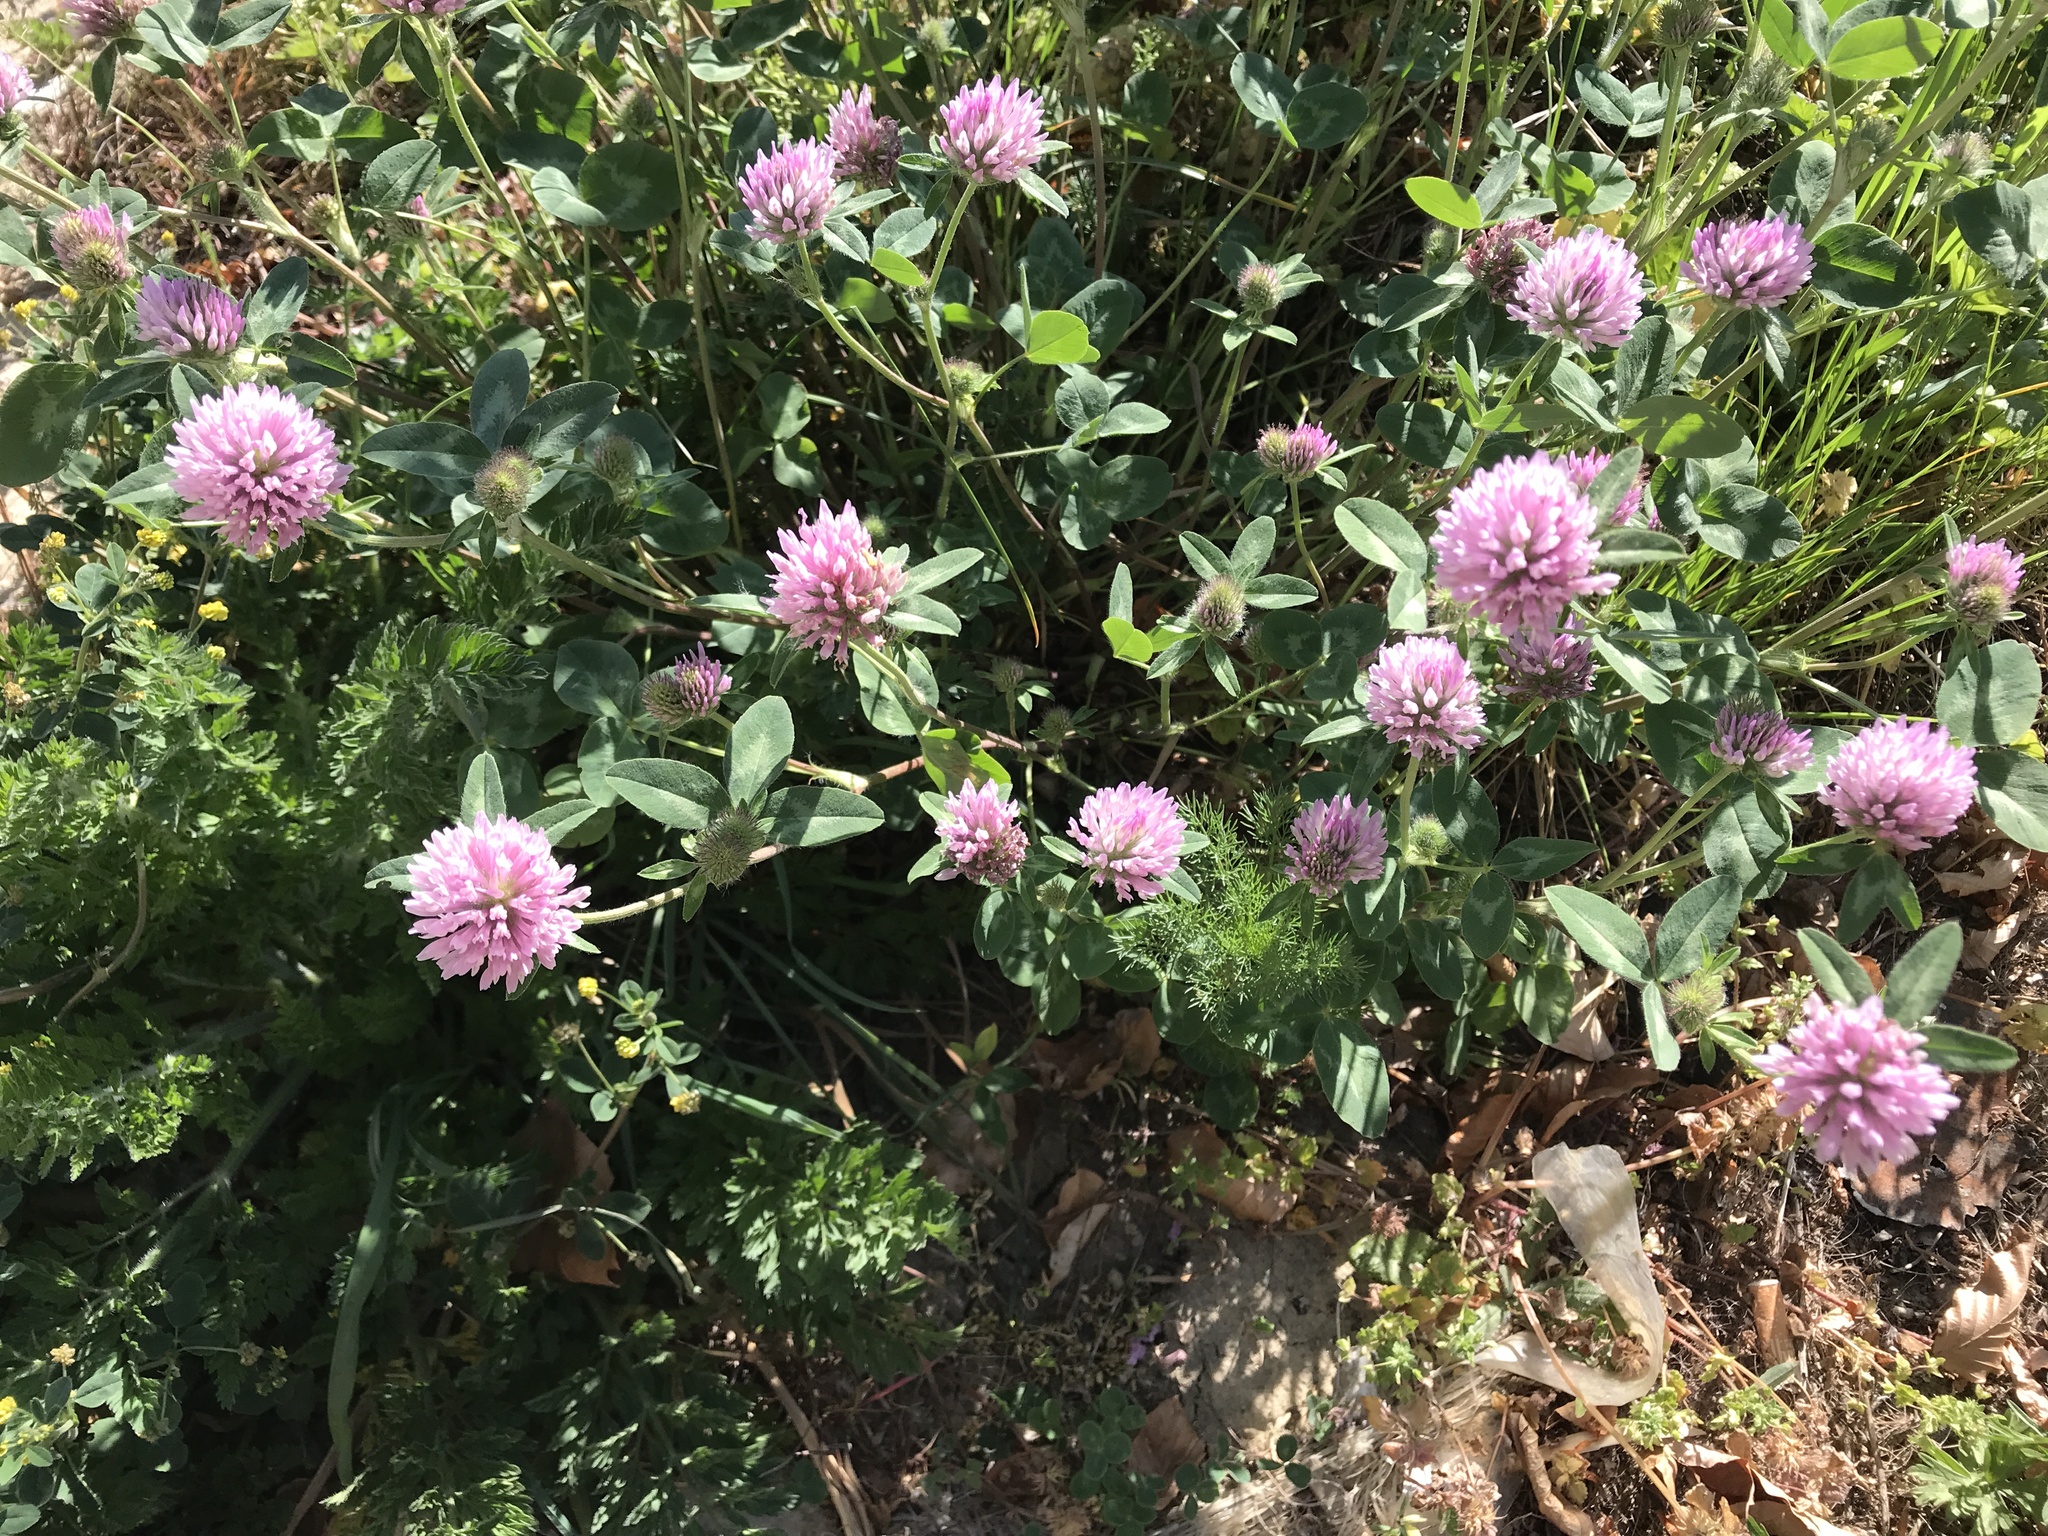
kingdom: Plantae
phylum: Tracheophyta
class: Magnoliopsida
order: Fabales
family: Fabaceae
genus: Trifolium
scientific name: Trifolium pratense
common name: Red clover
